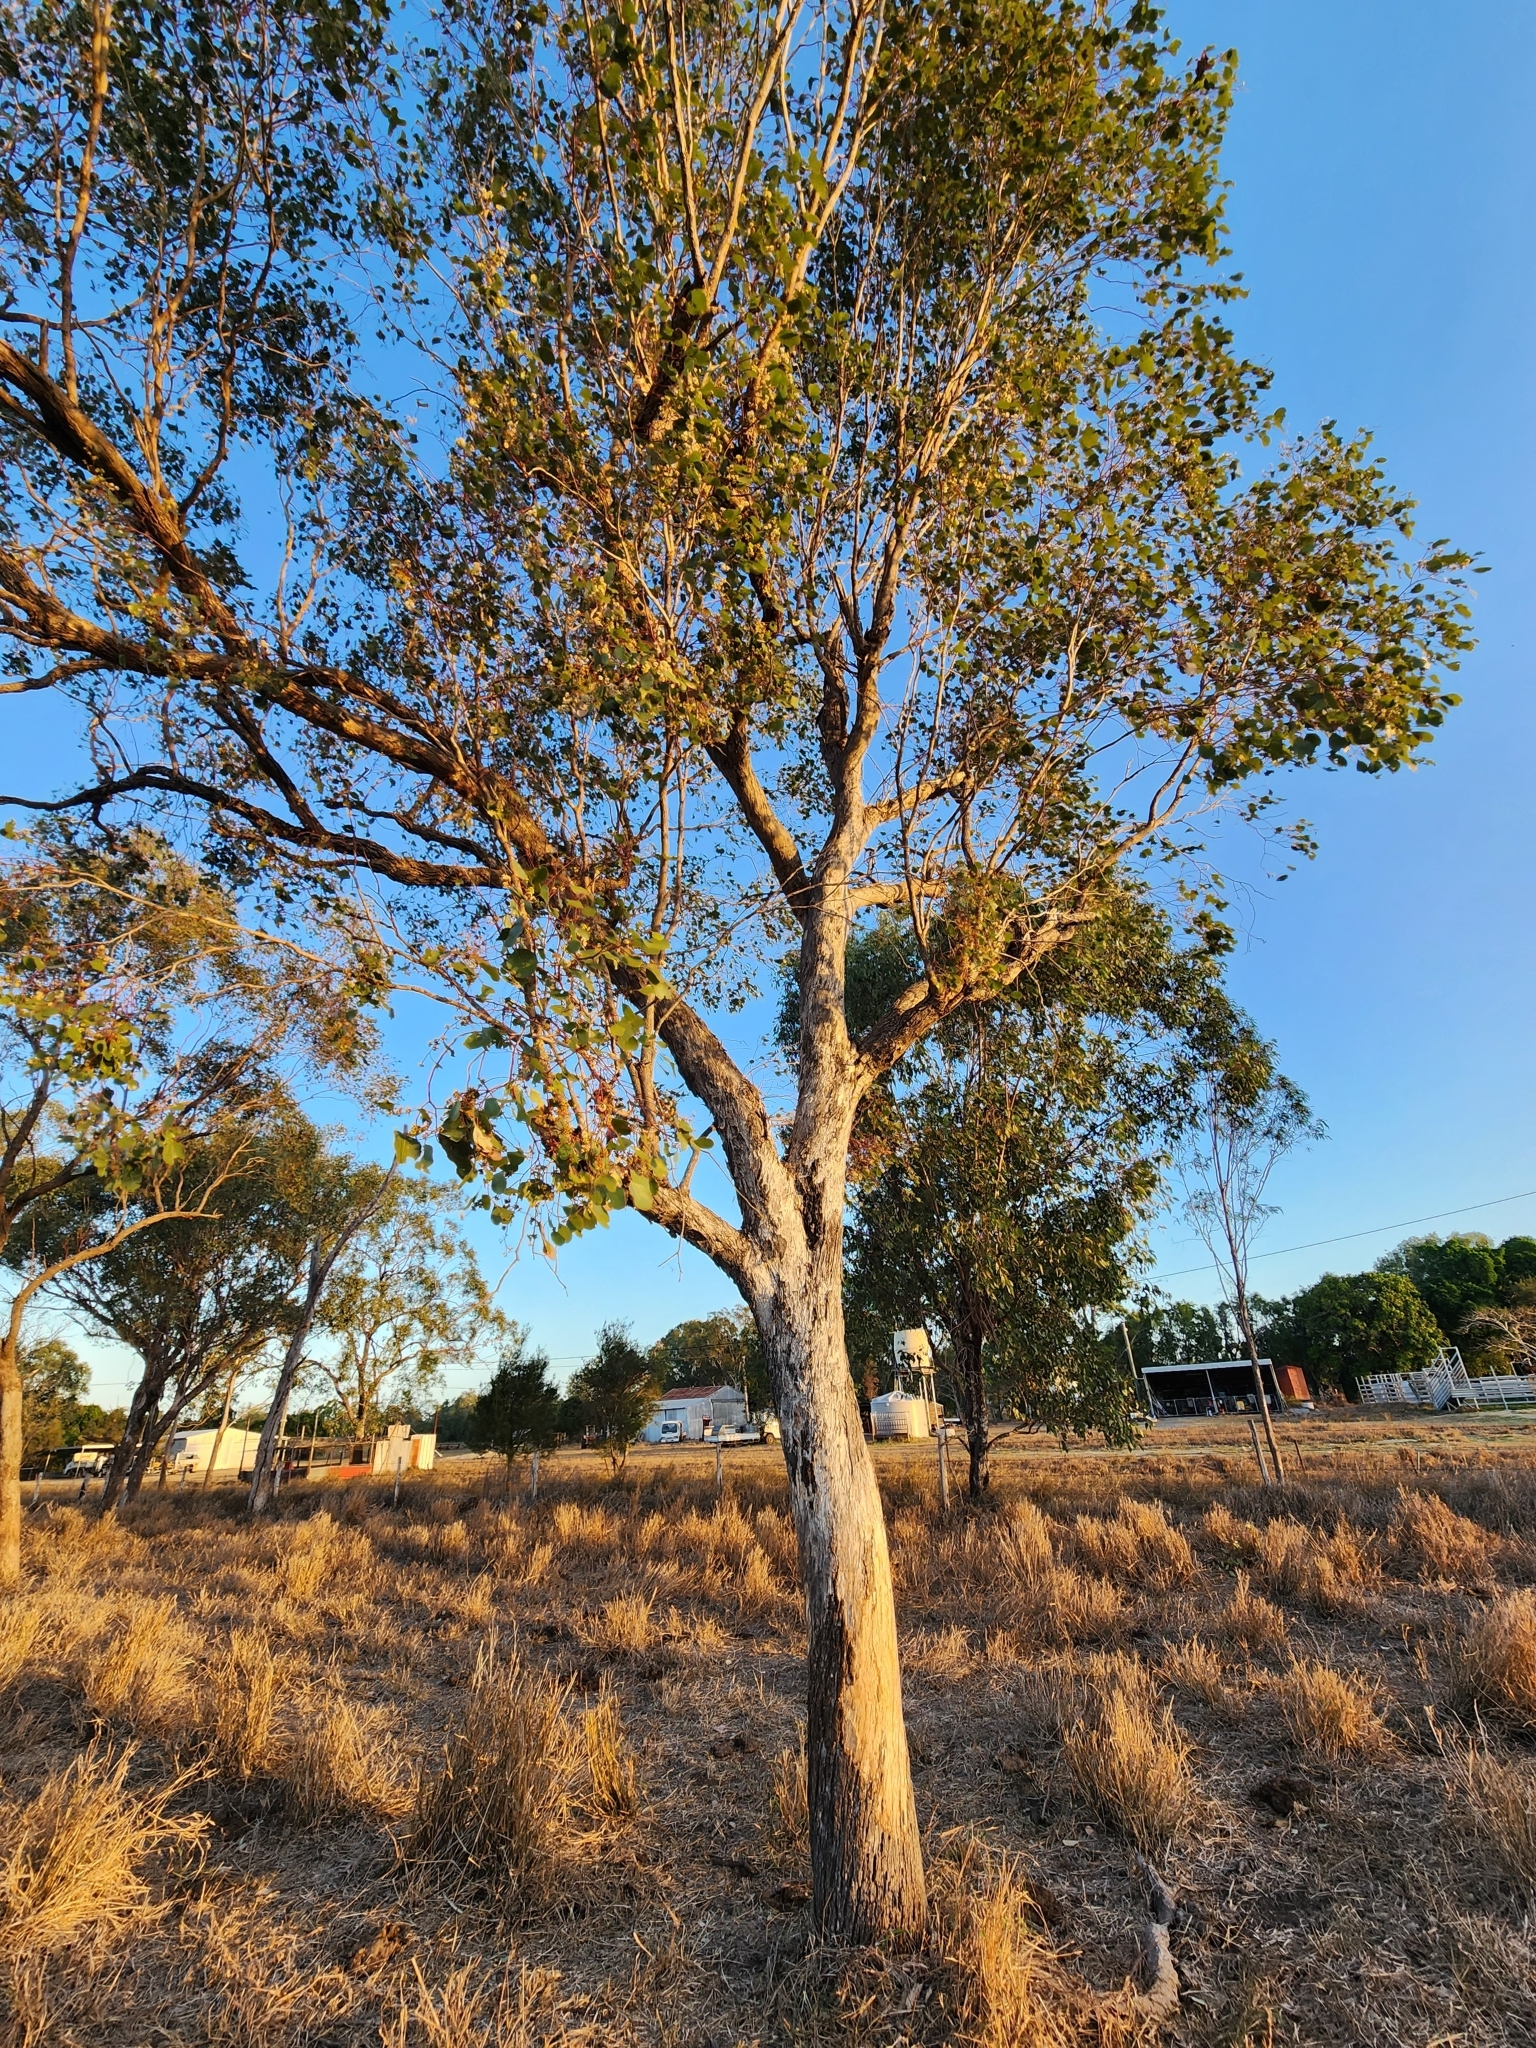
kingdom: Plantae
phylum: Tracheophyta
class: Magnoliopsida
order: Myrtales
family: Myrtaceae
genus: Eucalyptus
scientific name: Eucalyptus populnea
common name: Bimble box
